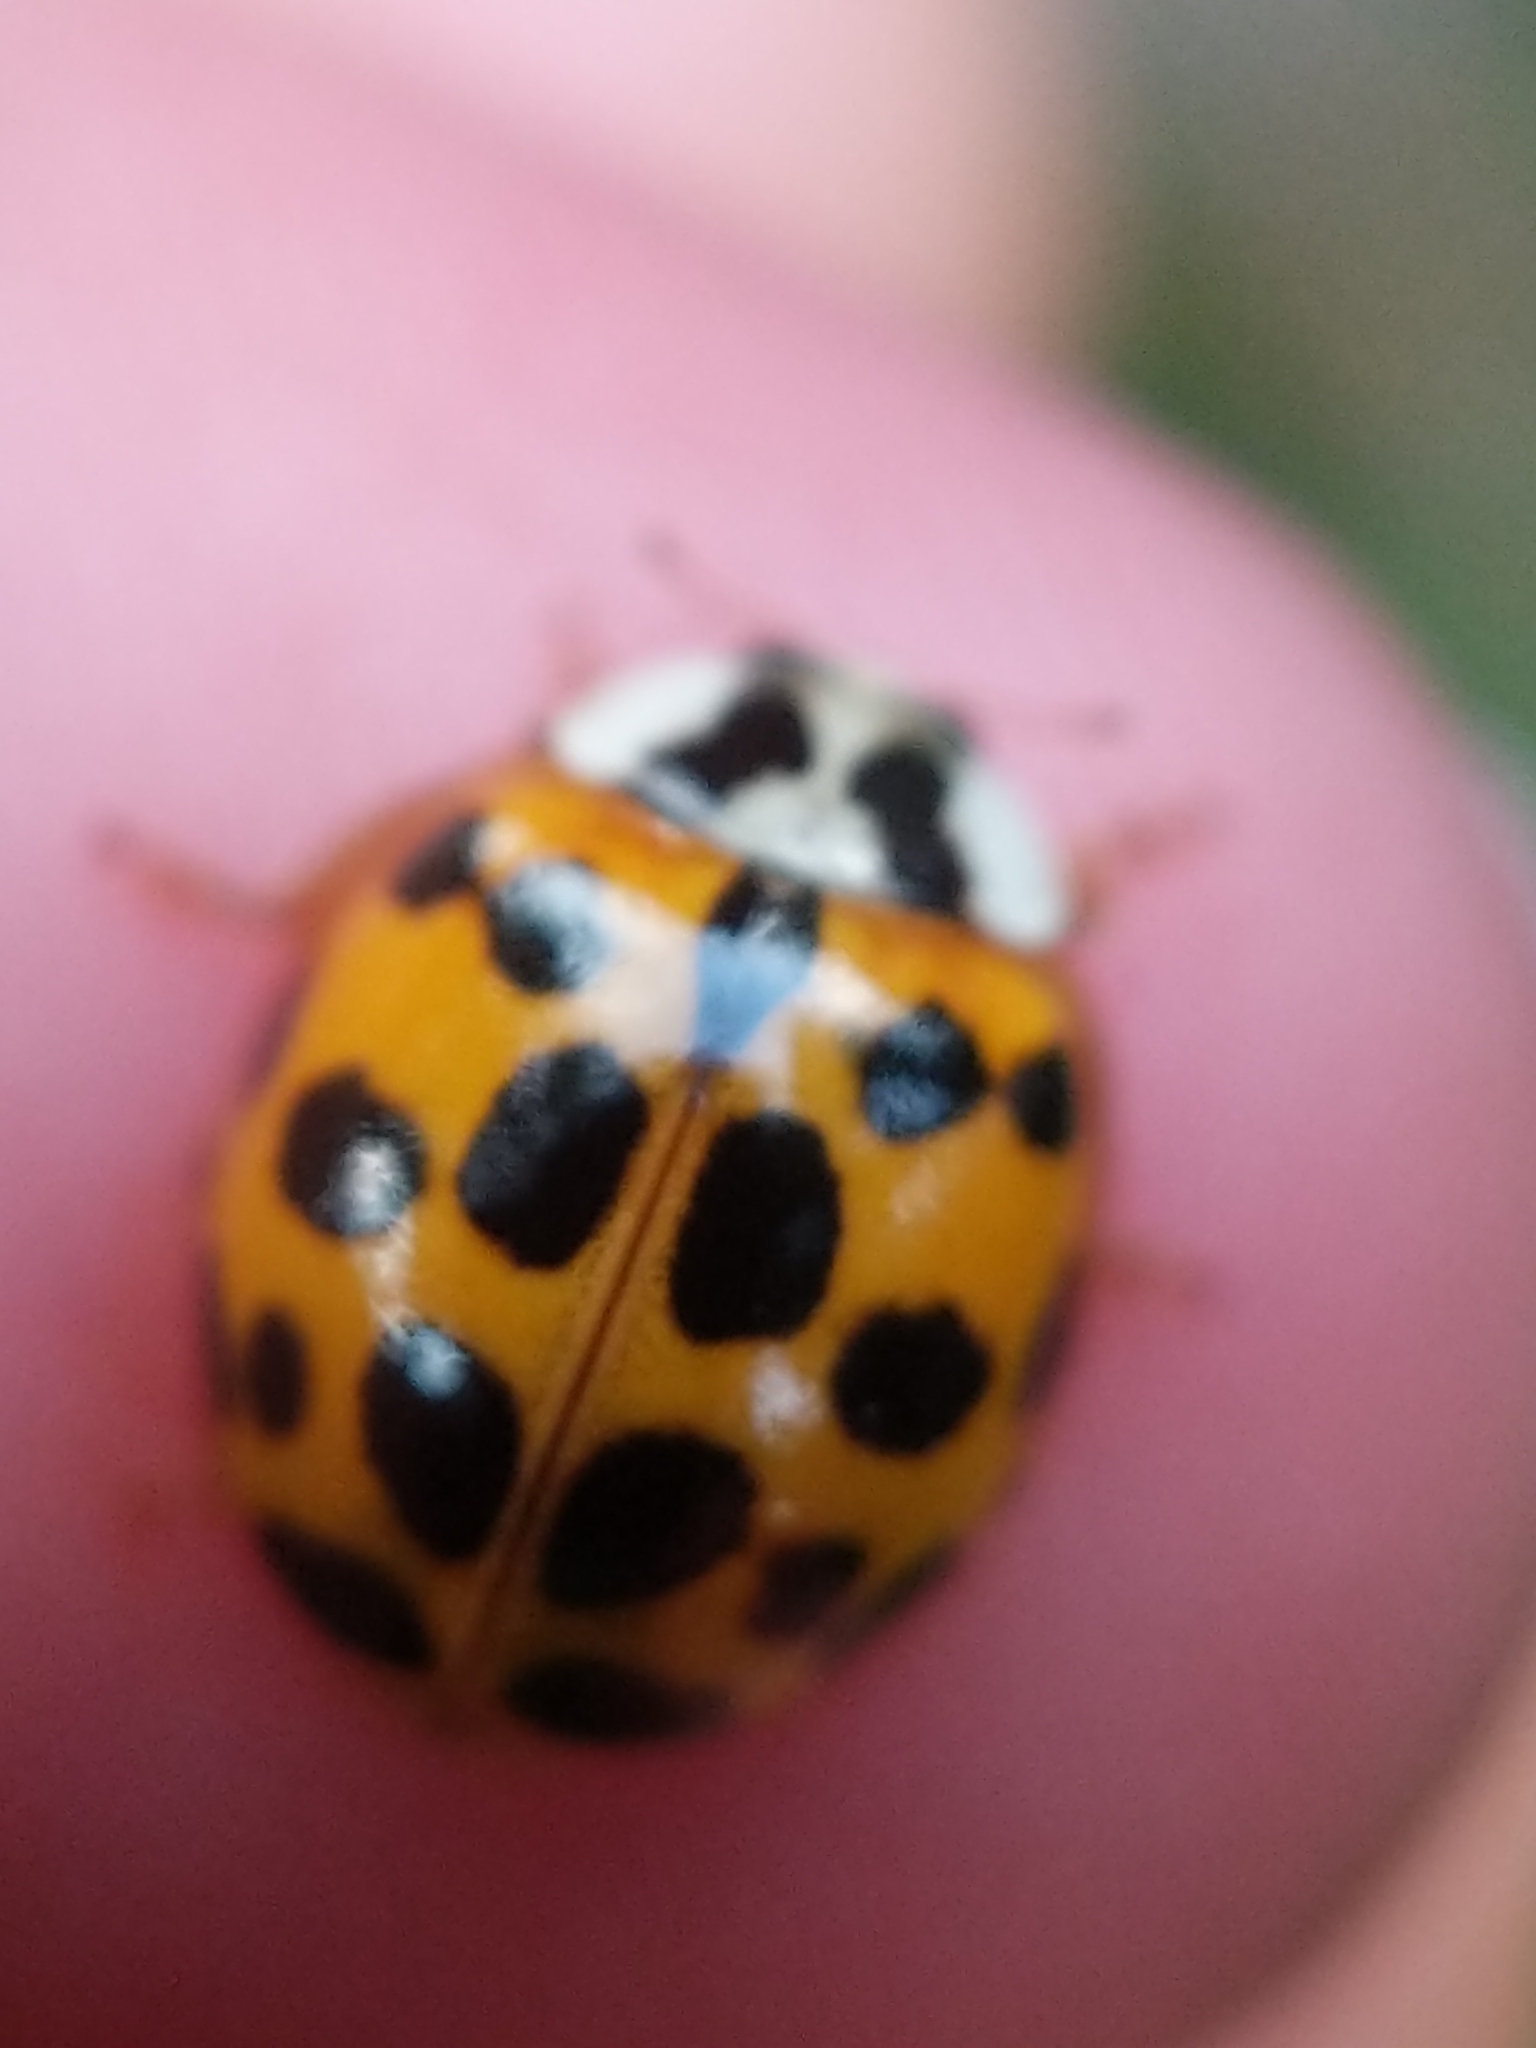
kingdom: Animalia
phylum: Arthropoda
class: Insecta
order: Coleoptera
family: Coccinellidae
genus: Harmonia
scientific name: Harmonia axyridis
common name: Harlequin ladybird
